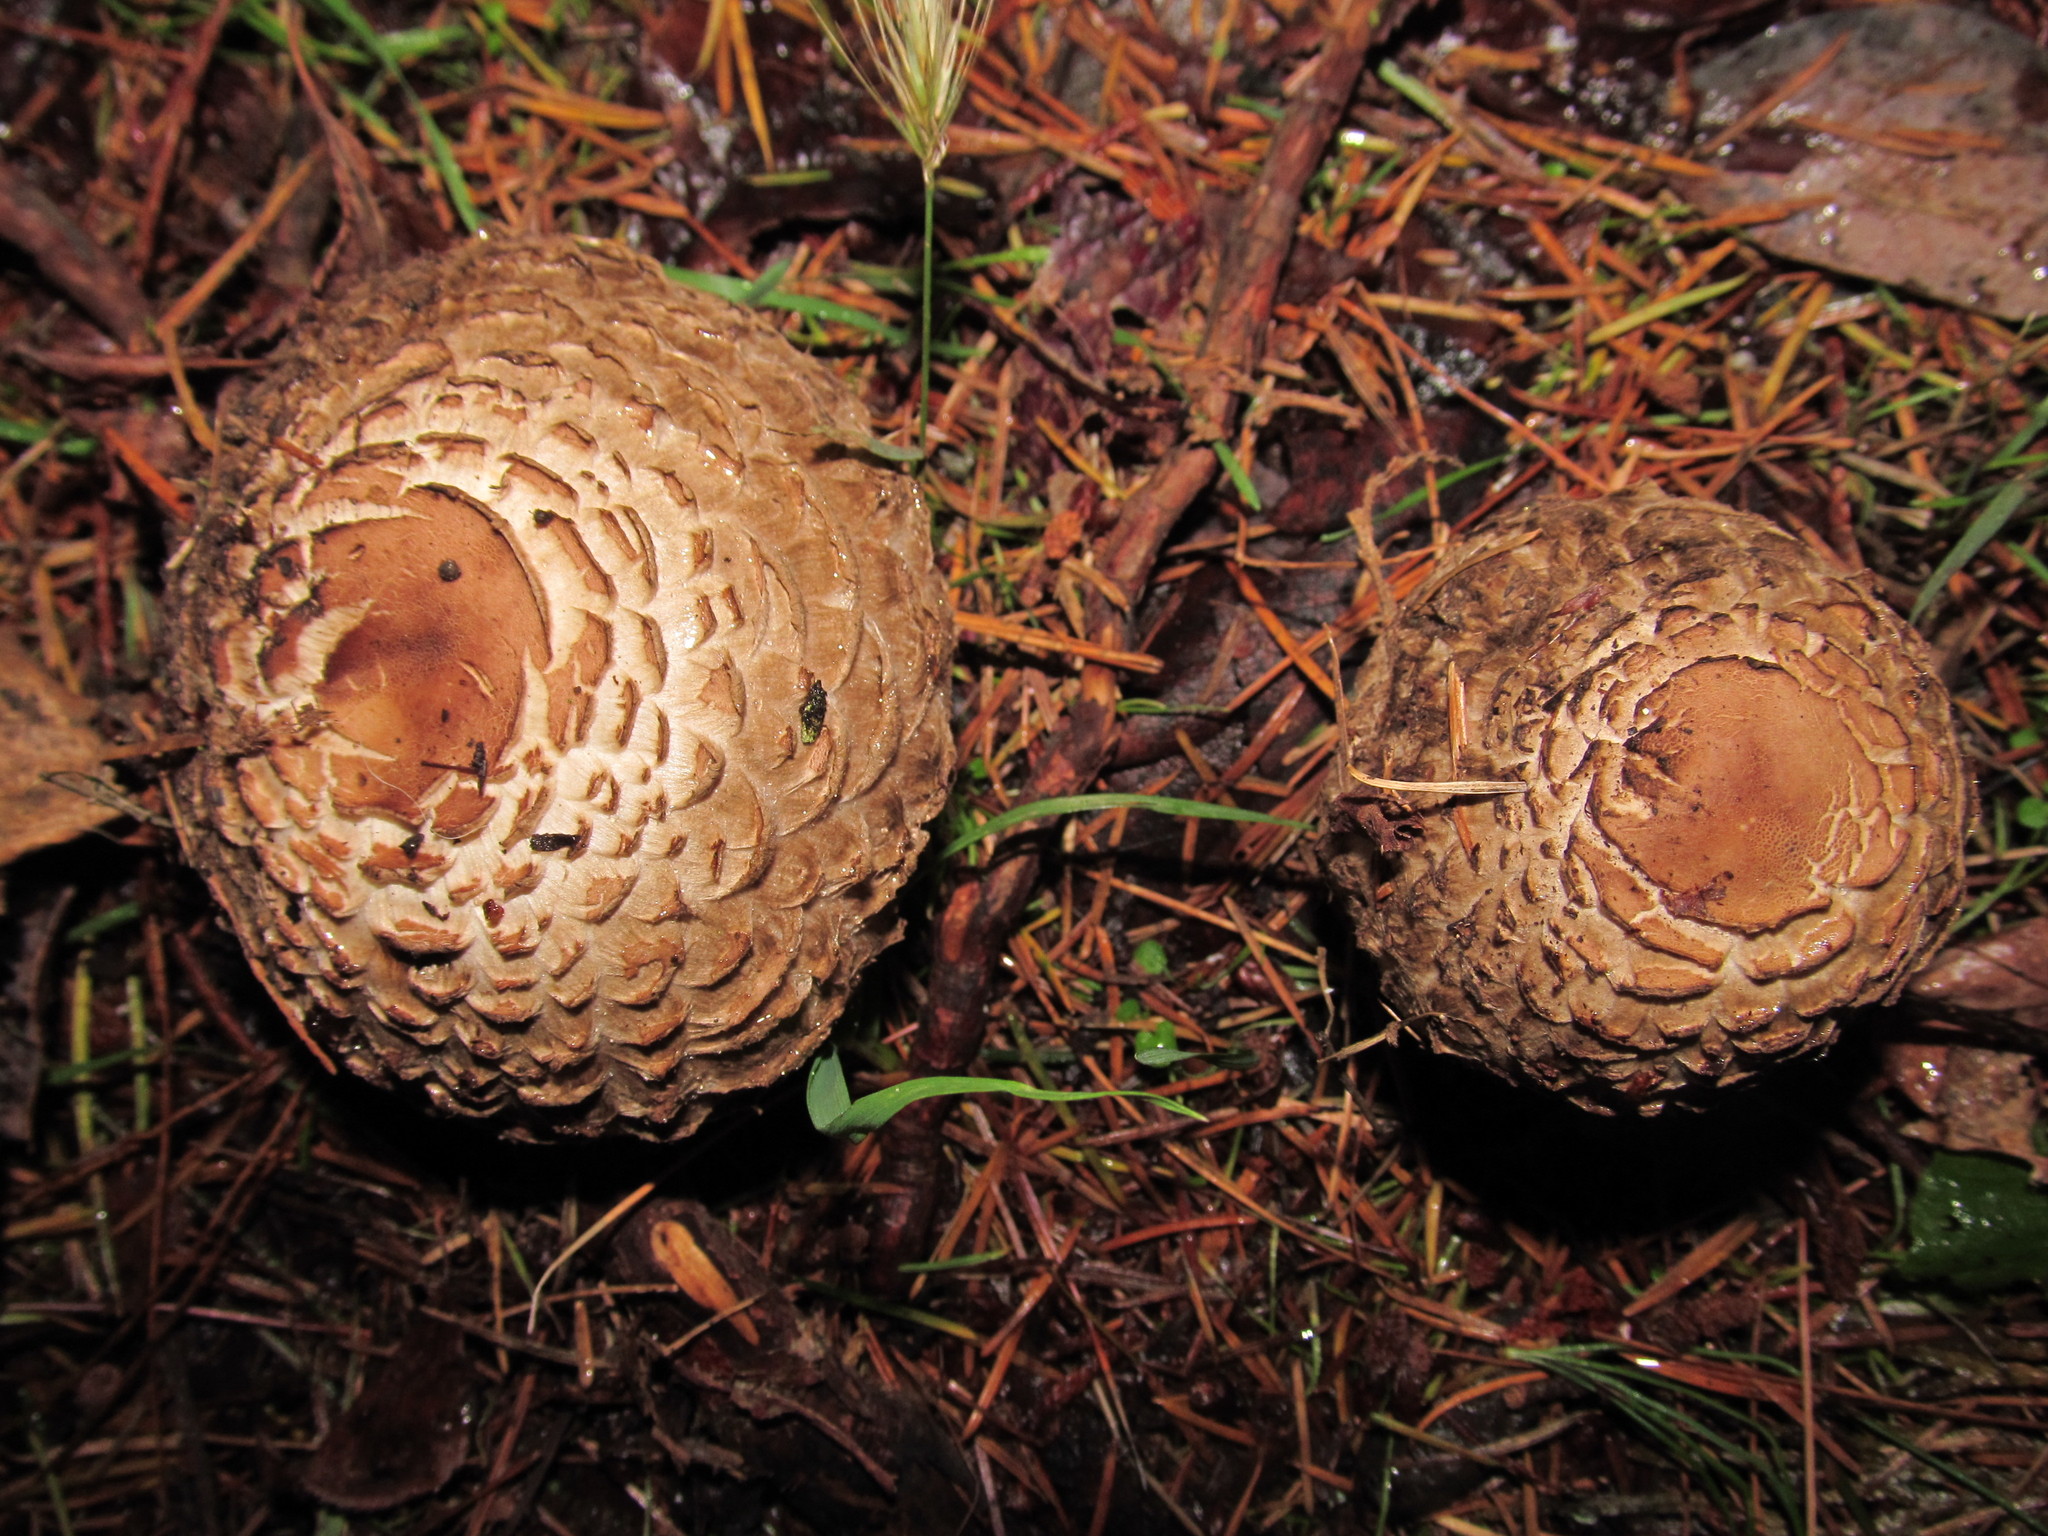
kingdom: Fungi
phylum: Basidiomycota
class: Agaricomycetes
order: Agaricales
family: Agaricaceae
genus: Chlorophyllum
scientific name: Chlorophyllum olivieri
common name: Conifer parasol
